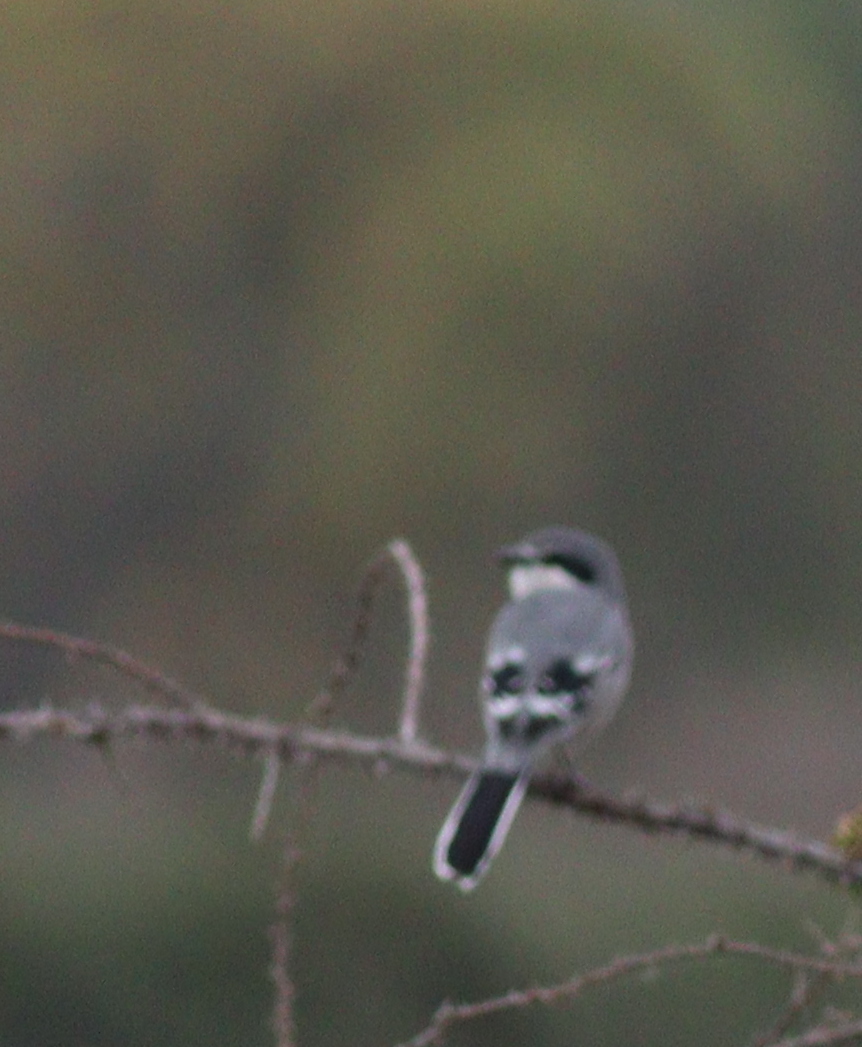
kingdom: Animalia
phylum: Chordata
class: Aves
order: Passeriformes
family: Laniidae
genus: Lanius
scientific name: Lanius meridionalis
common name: Iberian grey shrike
